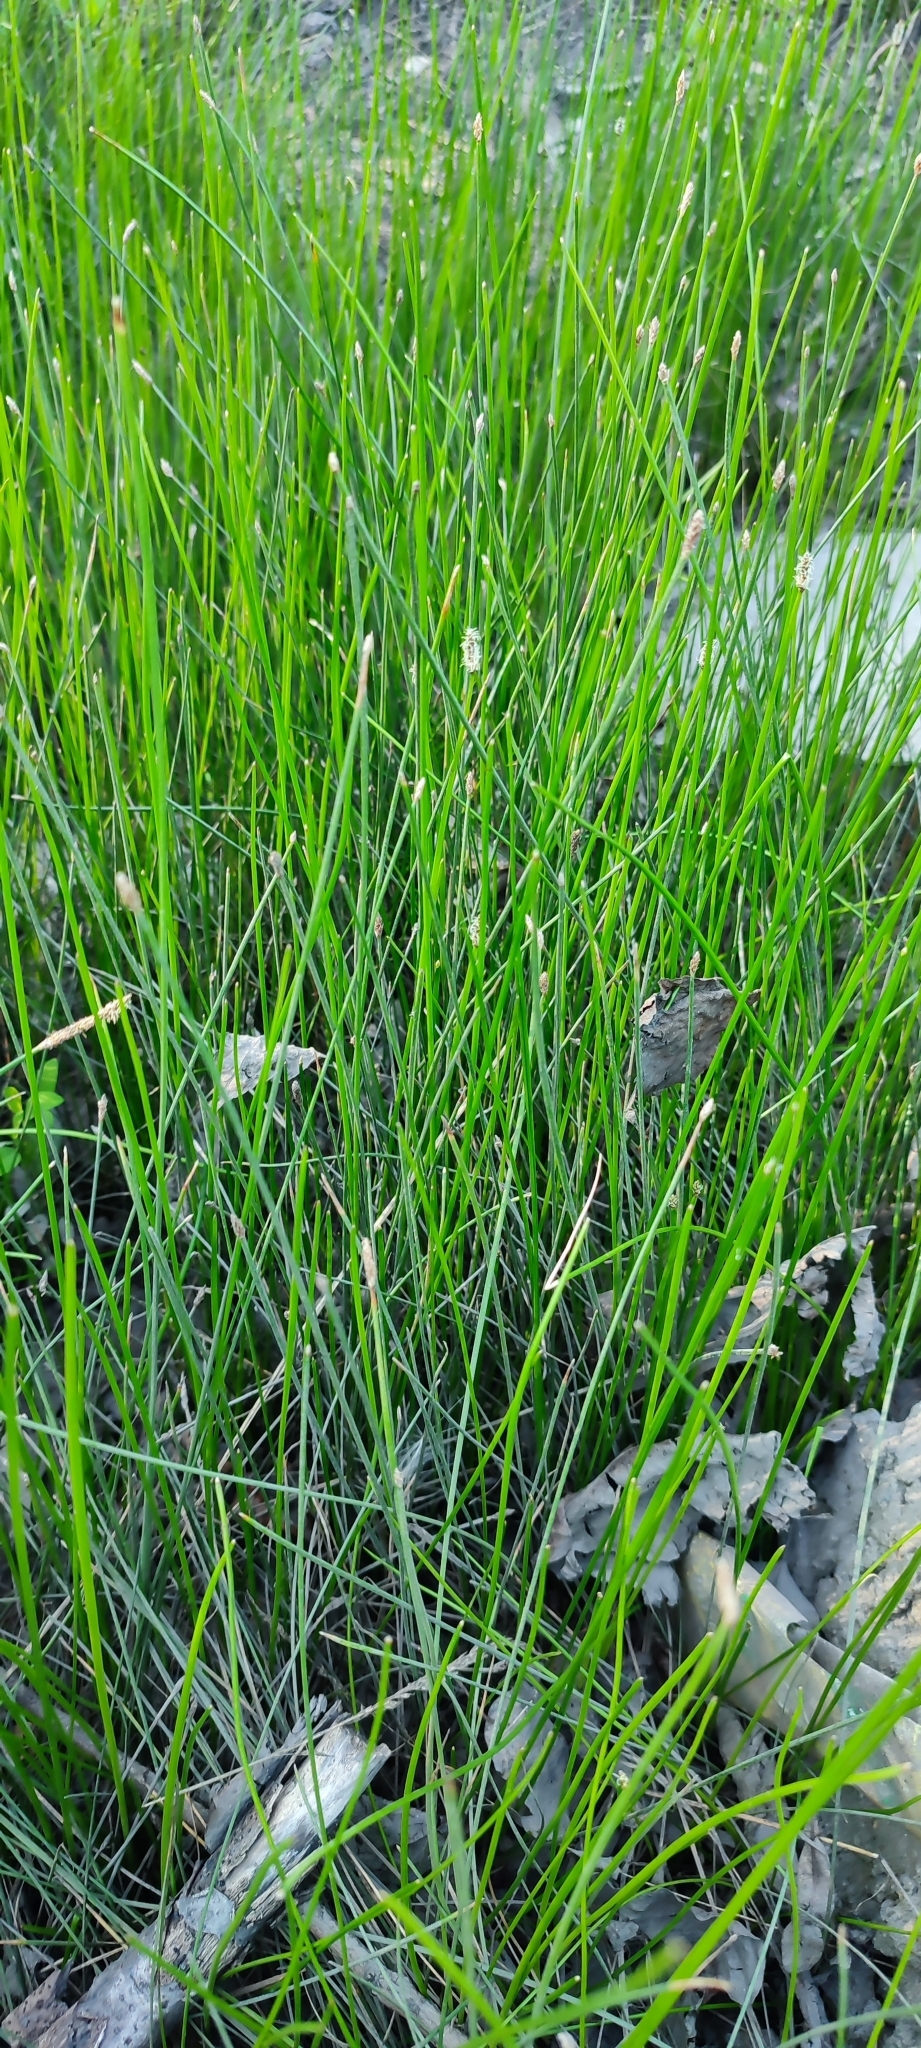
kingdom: Plantae
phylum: Tracheophyta
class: Liliopsida
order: Poales
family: Cyperaceae
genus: Eleocharis
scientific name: Eleocharis palustris
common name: Common spike-rush
